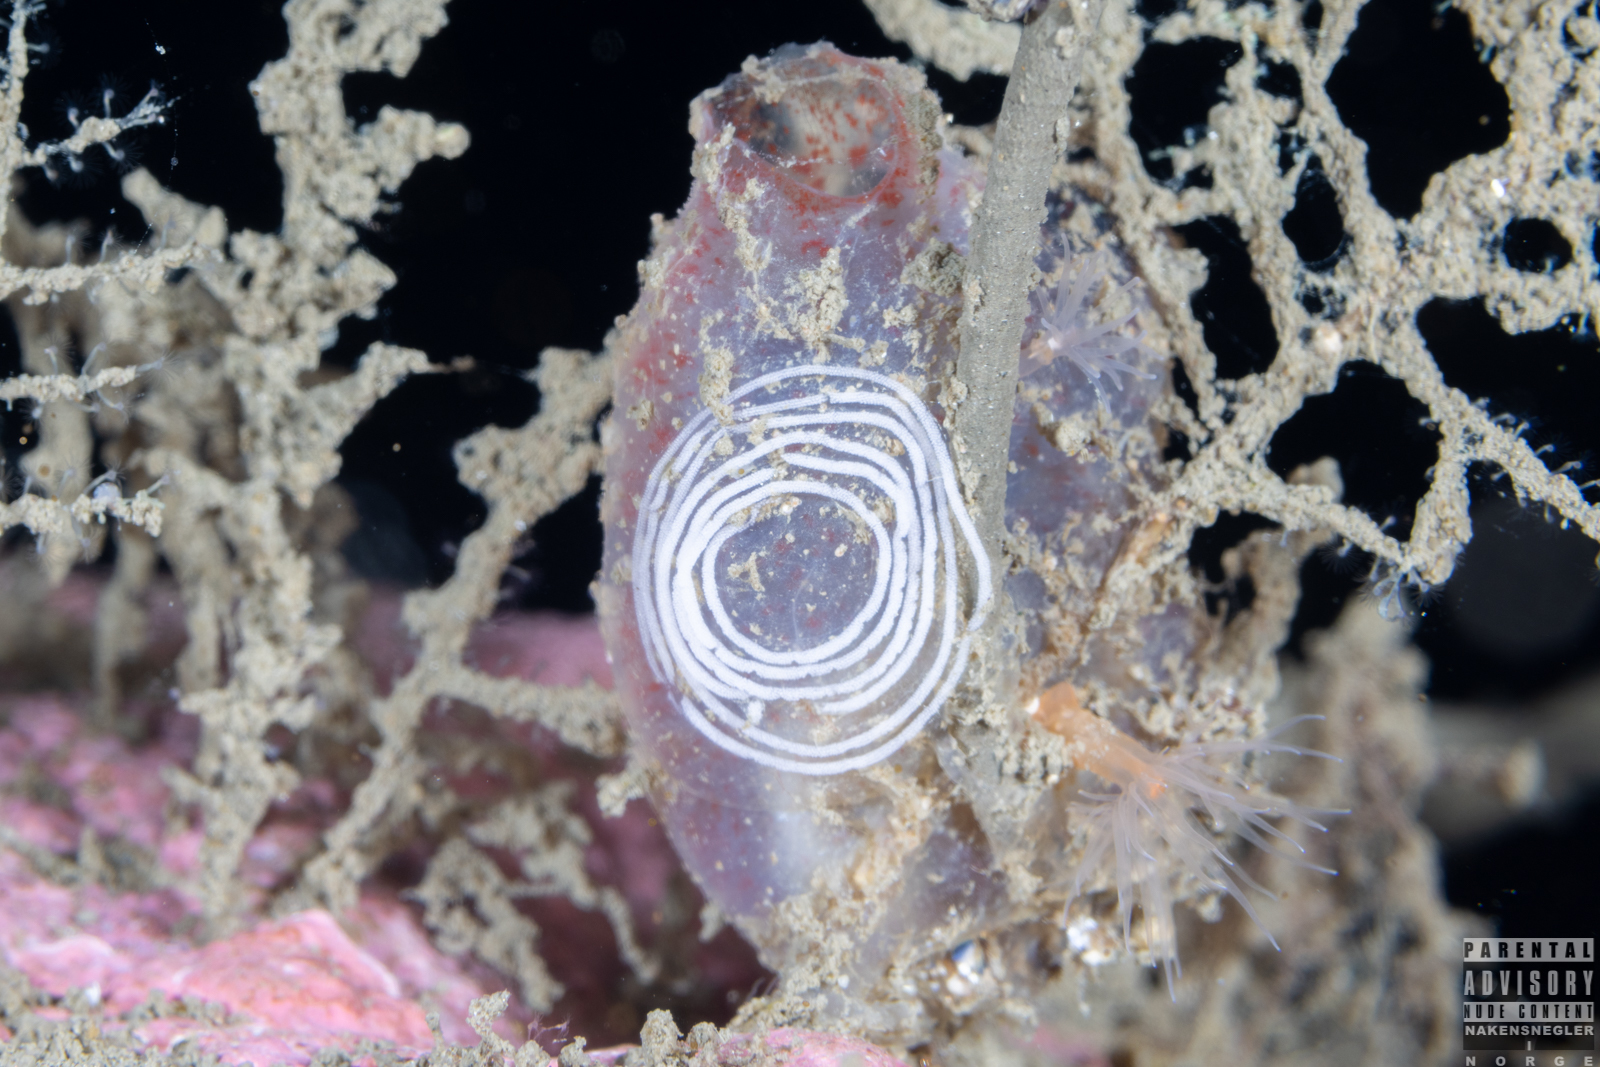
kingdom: Animalia
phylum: Mollusca
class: Gastropoda
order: Nudibranchia
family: Coryphellidae
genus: Coryphella
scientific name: Coryphella verrucosa
